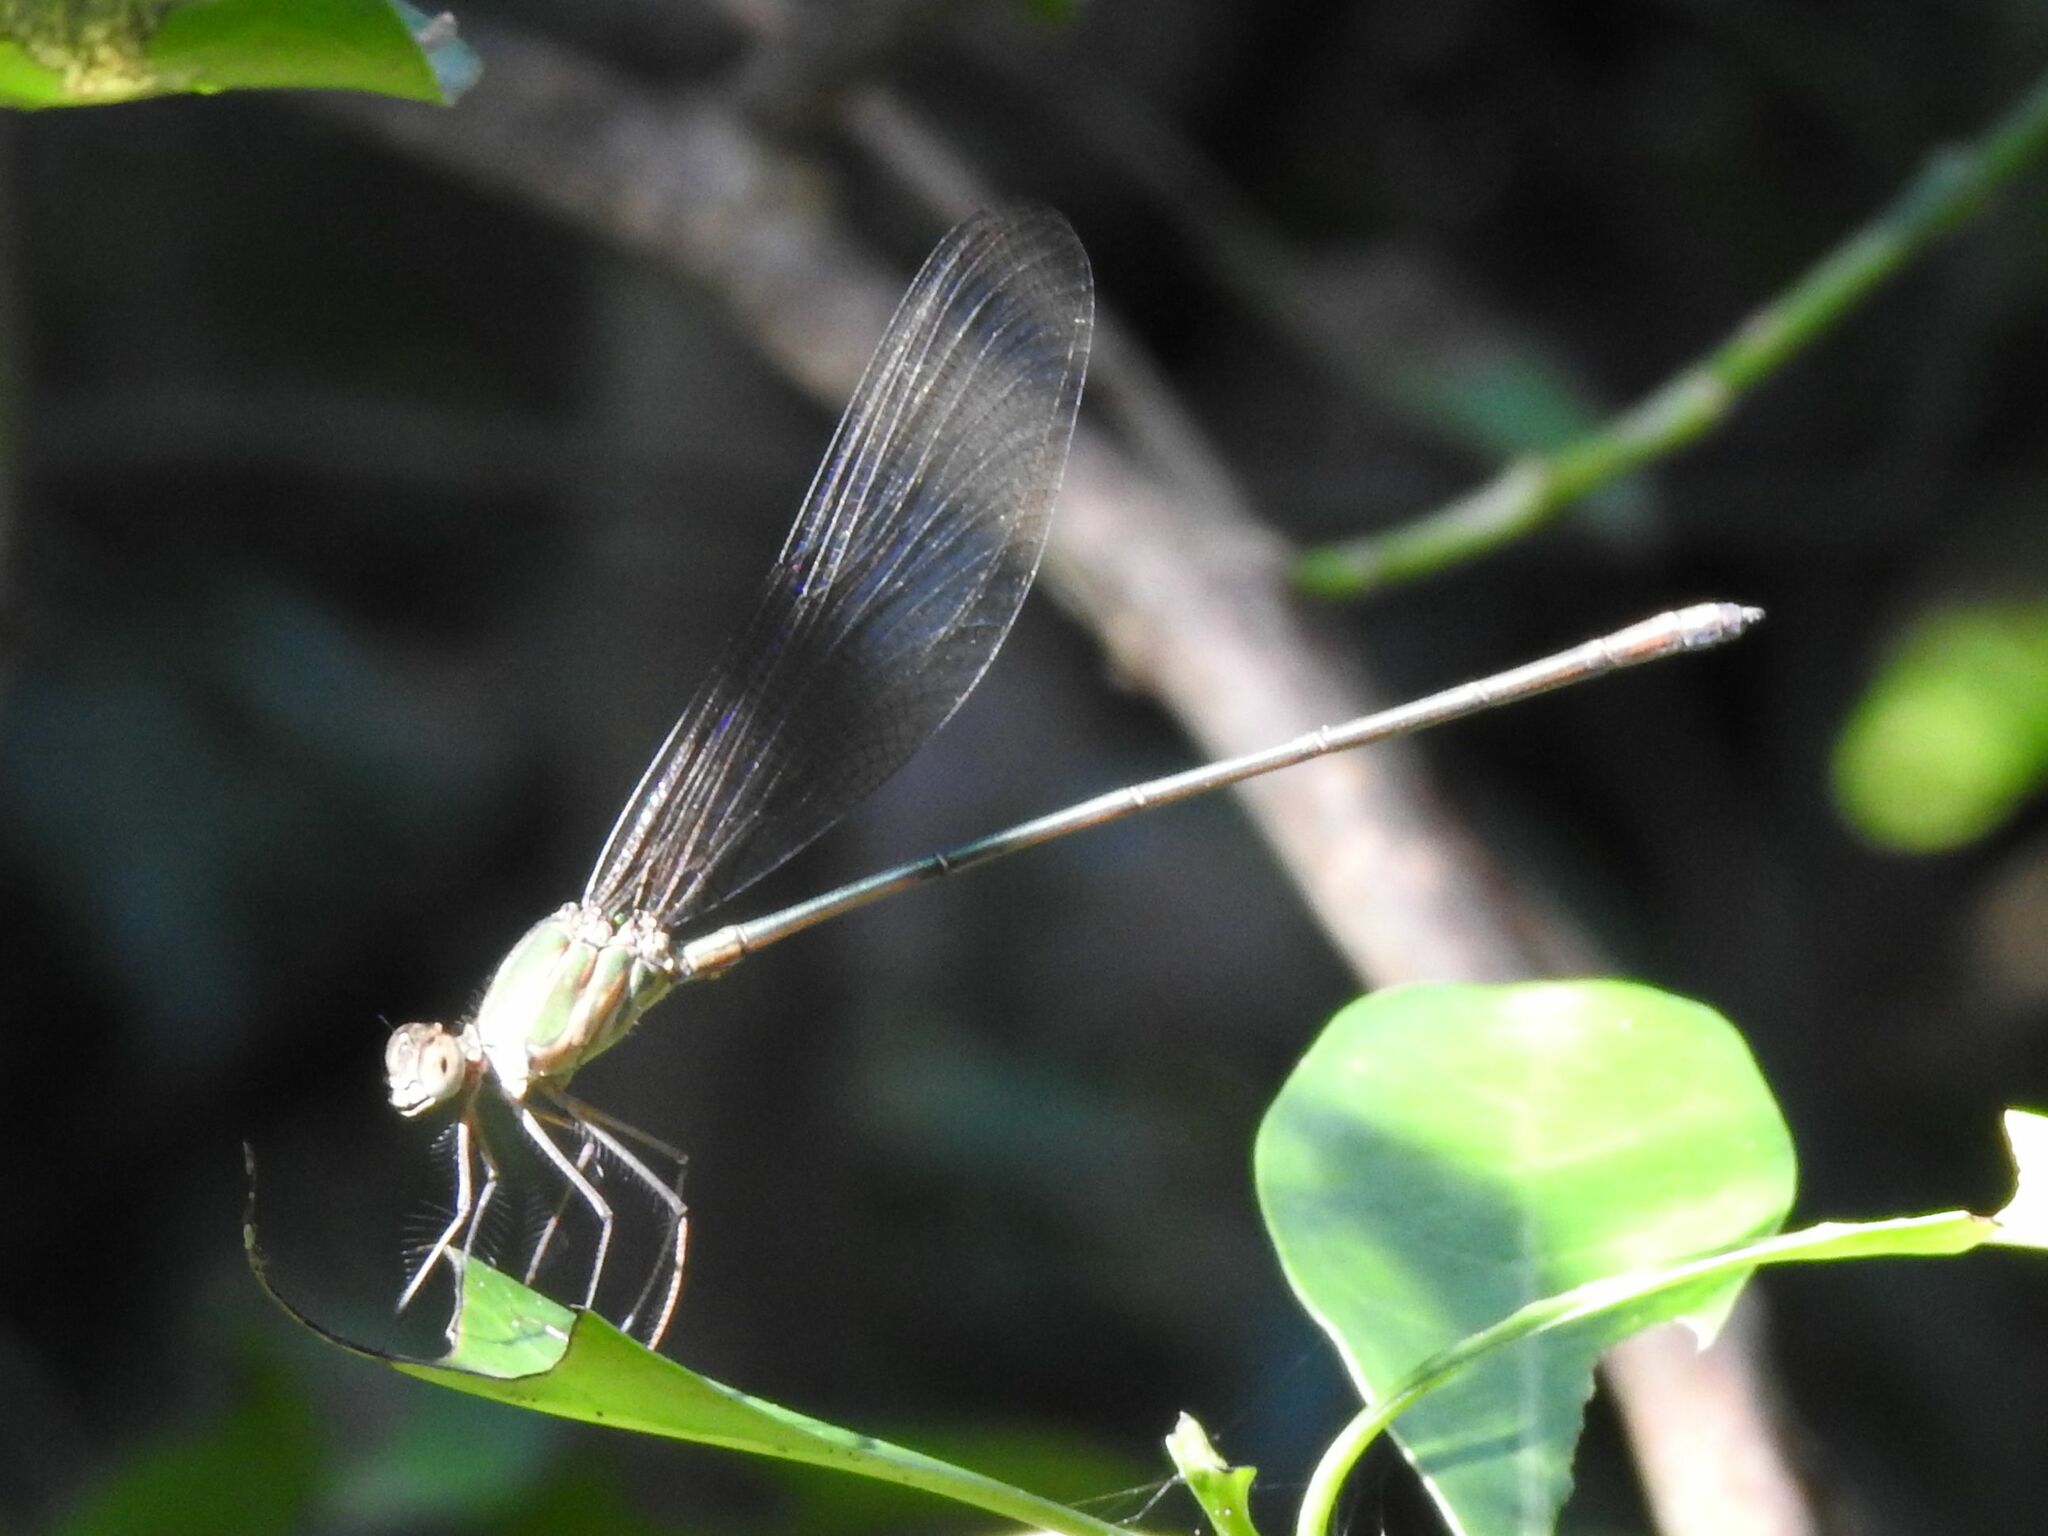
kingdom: Animalia
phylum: Arthropoda
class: Insecta
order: Odonata
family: Calopterygidae
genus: Phaon
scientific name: Phaon iridipennis
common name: Glistening demoiselle
